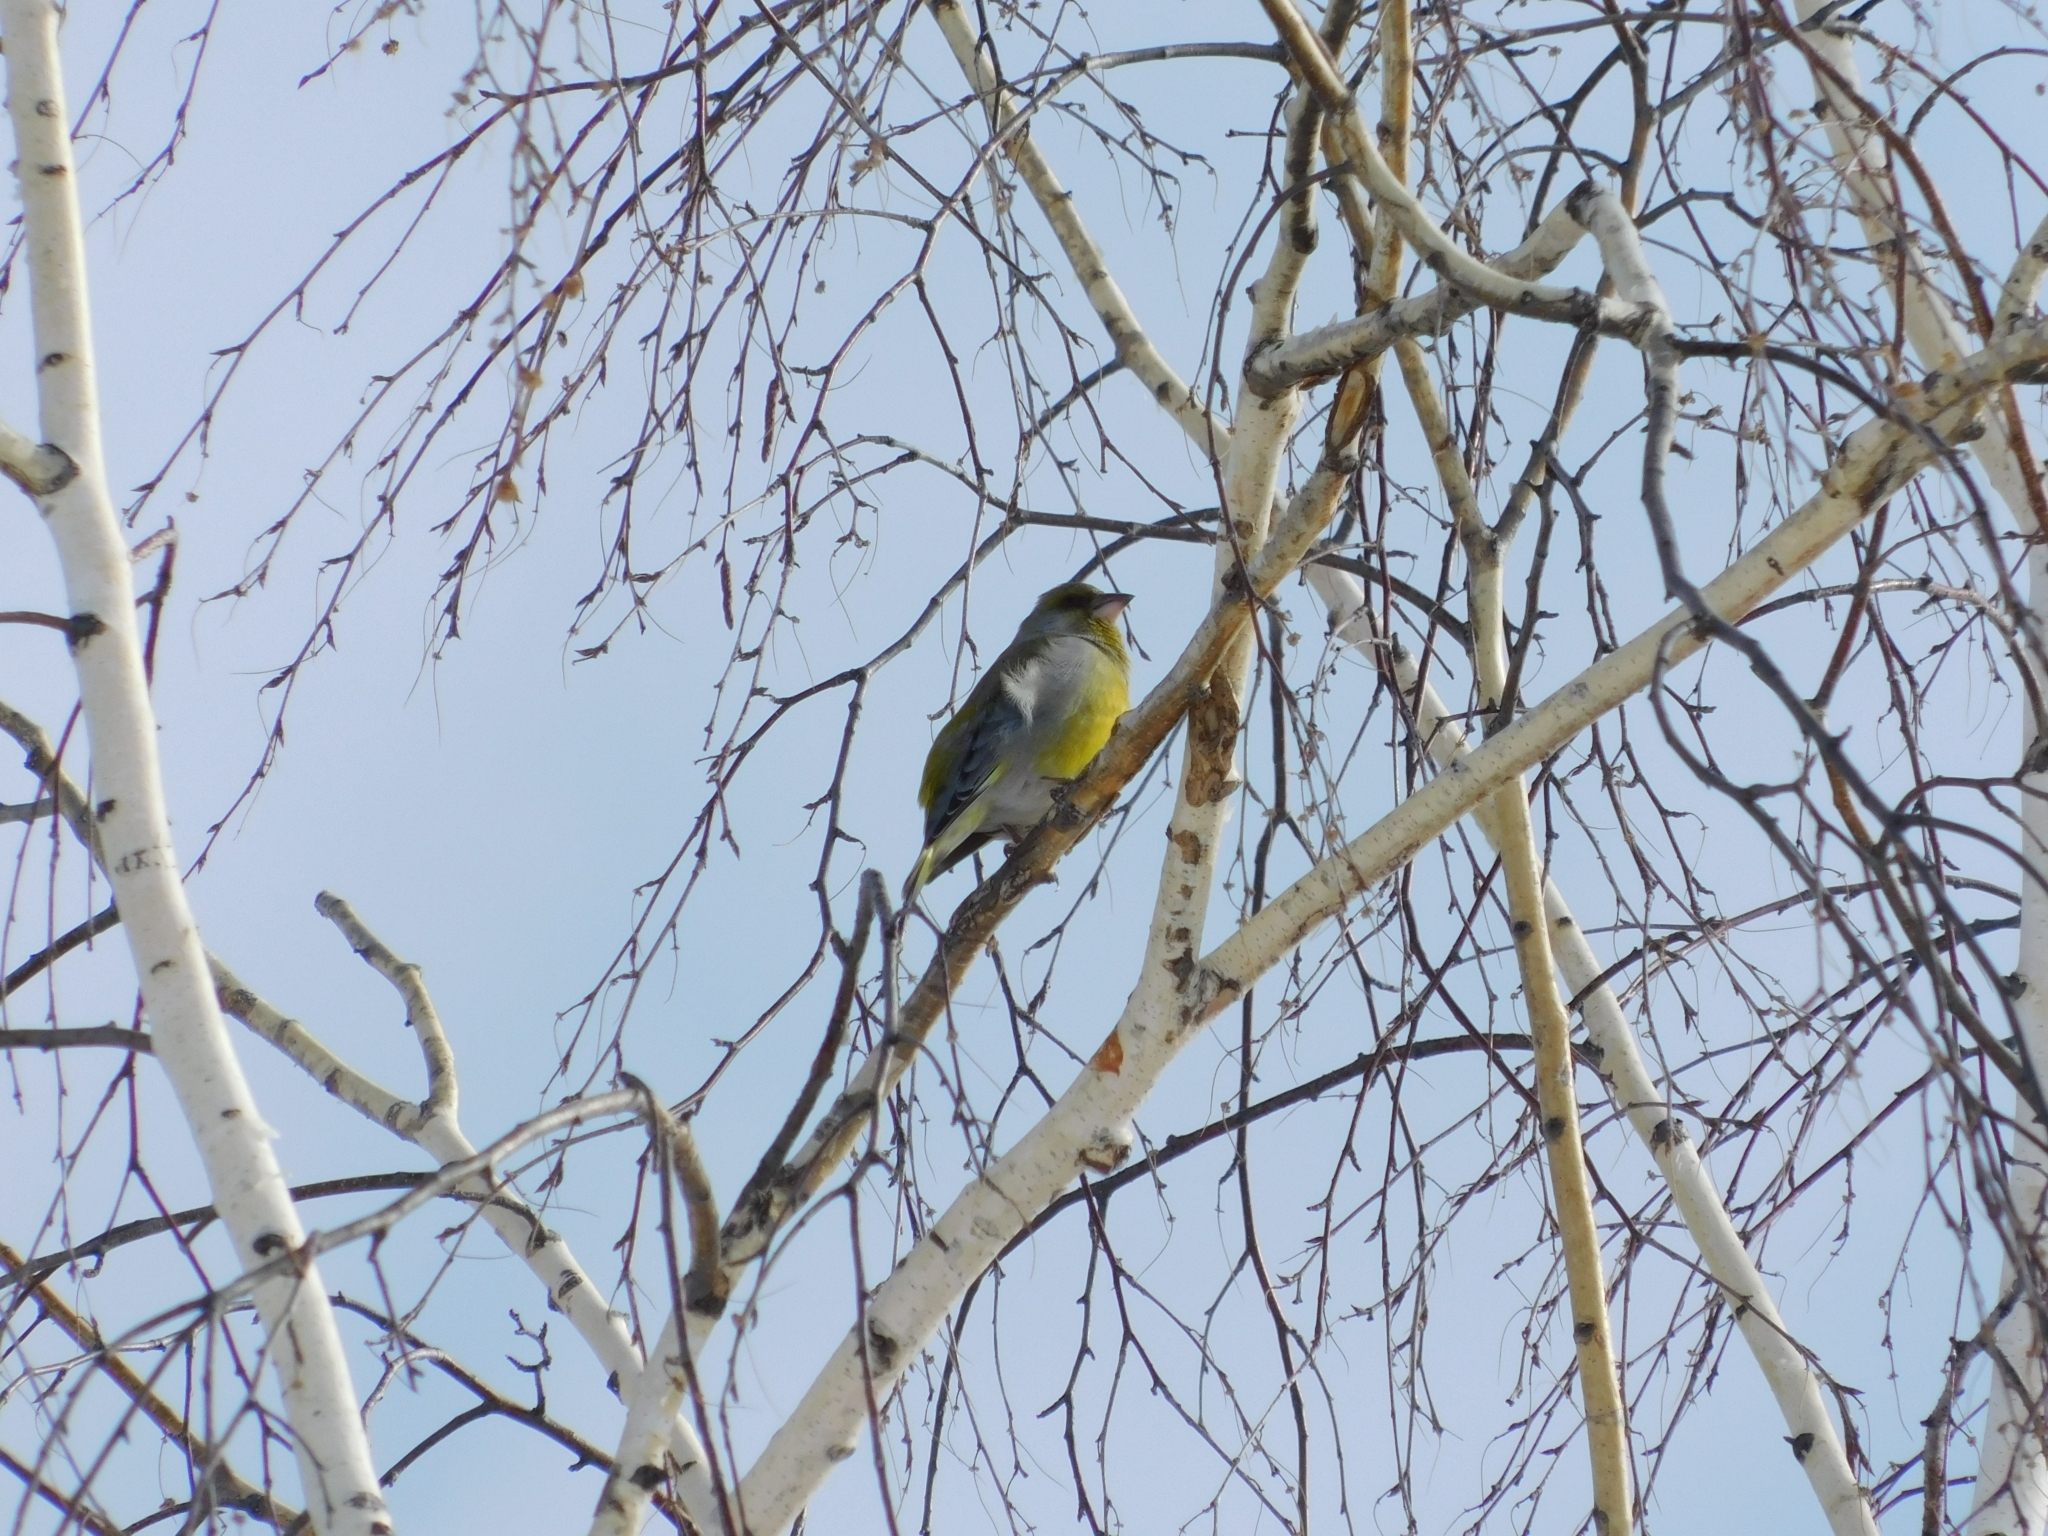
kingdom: Plantae
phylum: Tracheophyta
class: Liliopsida
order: Poales
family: Poaceae
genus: Chloris
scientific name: Chloris chloris
